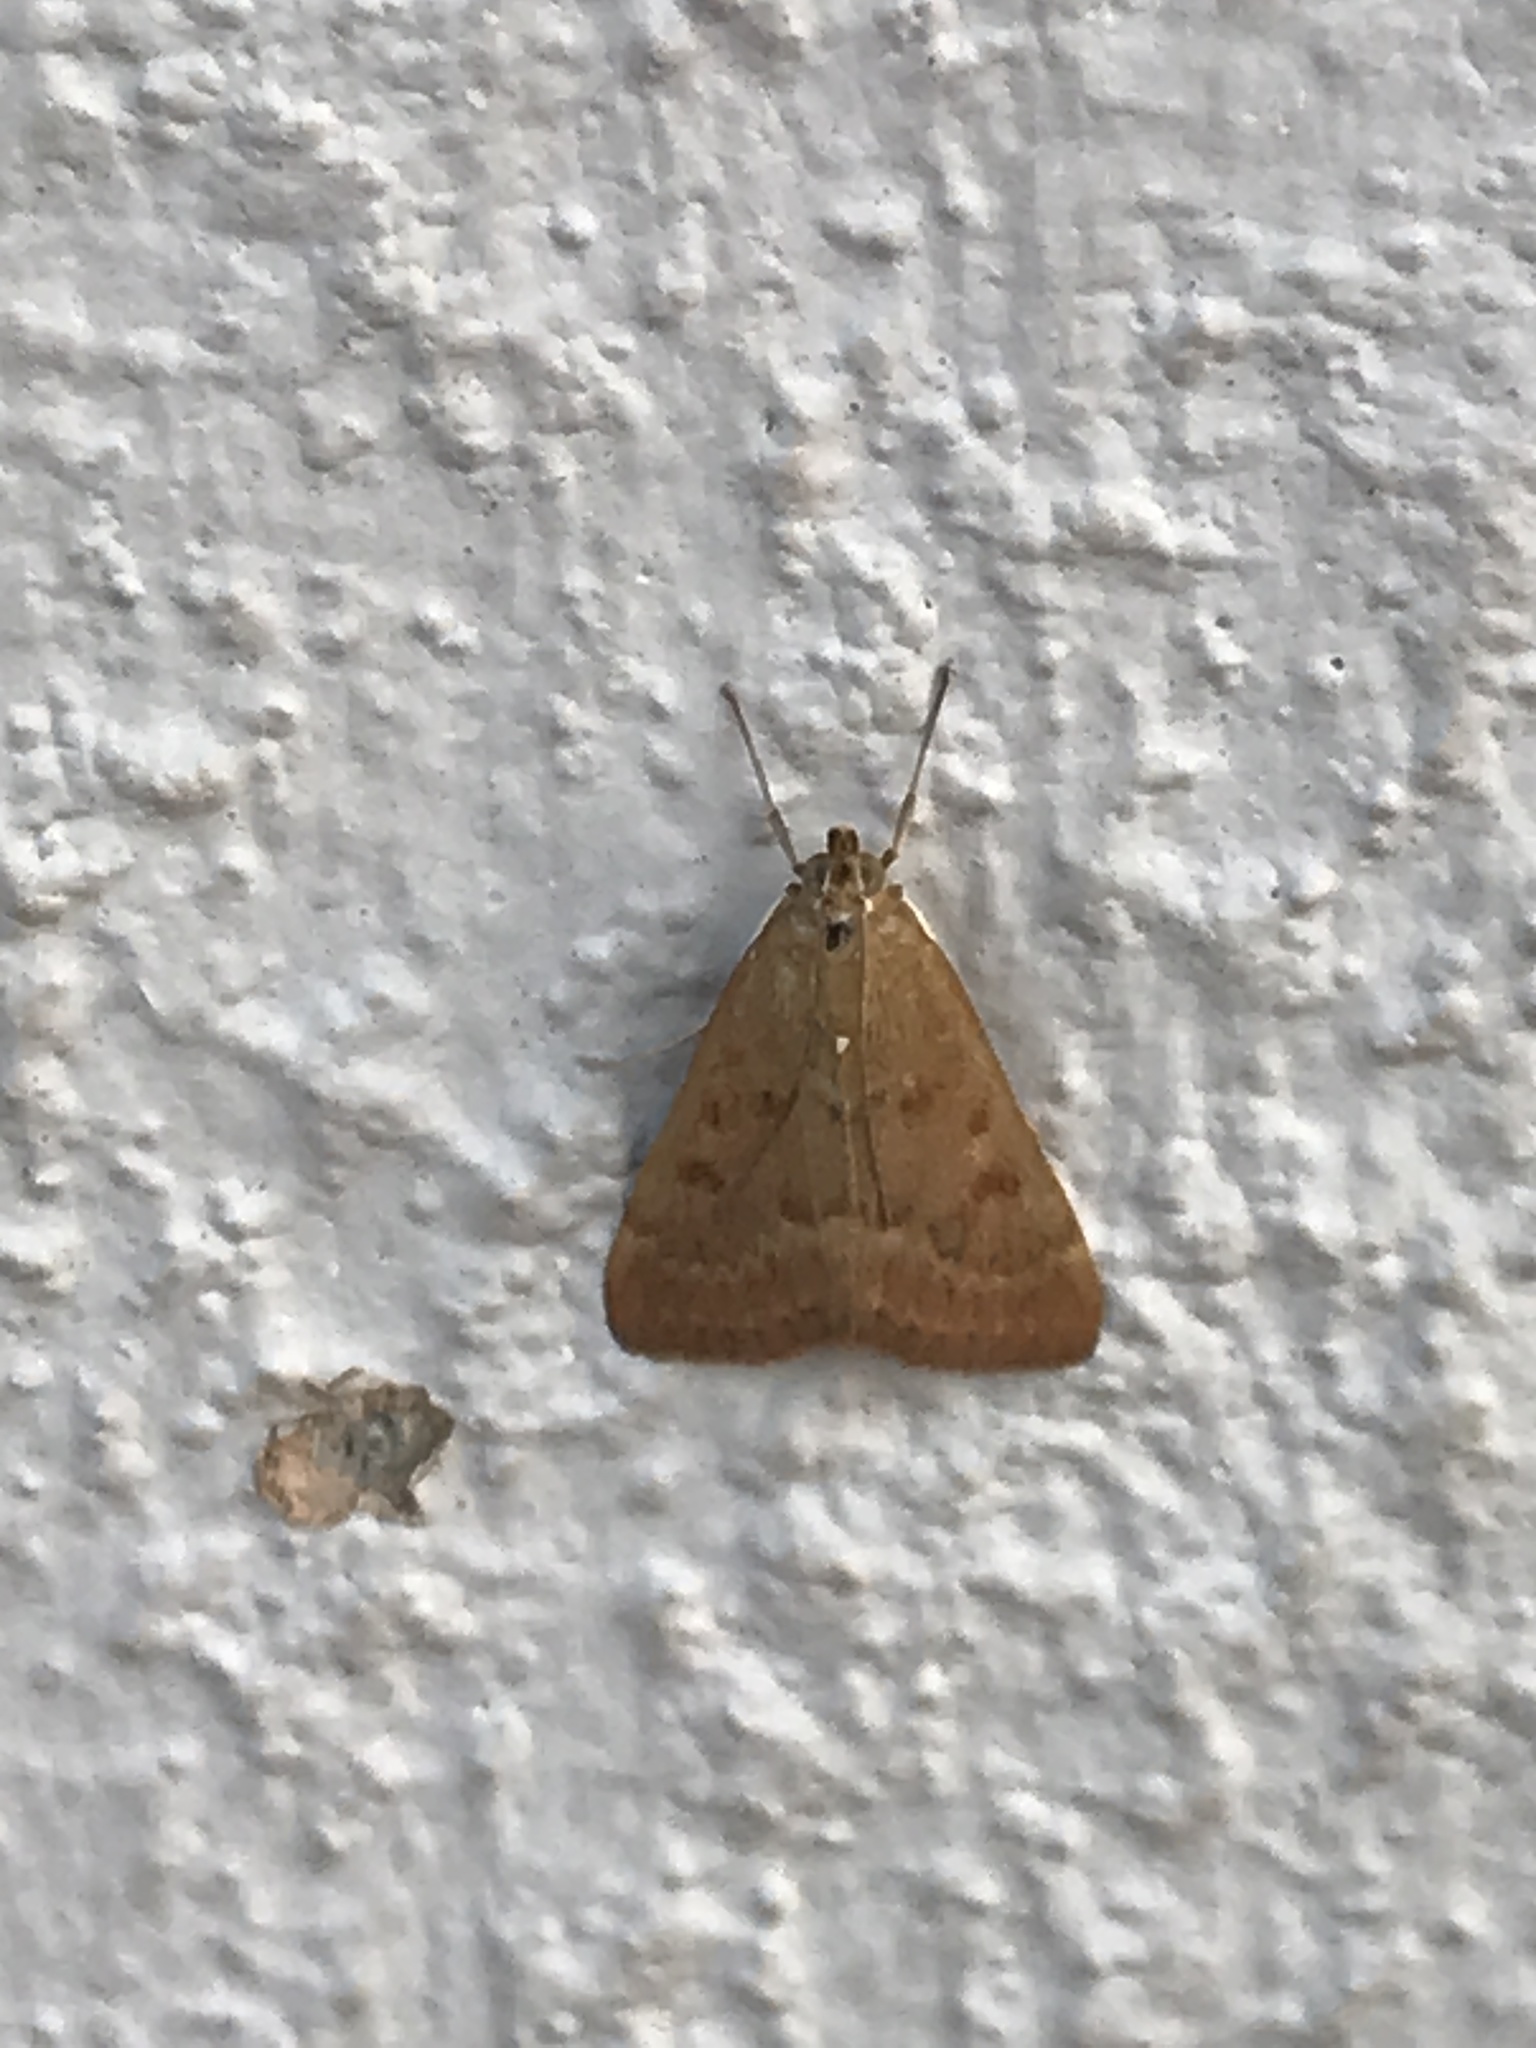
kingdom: Animalia
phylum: Arthropoda
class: Insecta
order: Lepidoptera
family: Crambidae
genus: Achyra
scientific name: Achyra rantalis
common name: Garden webworm
